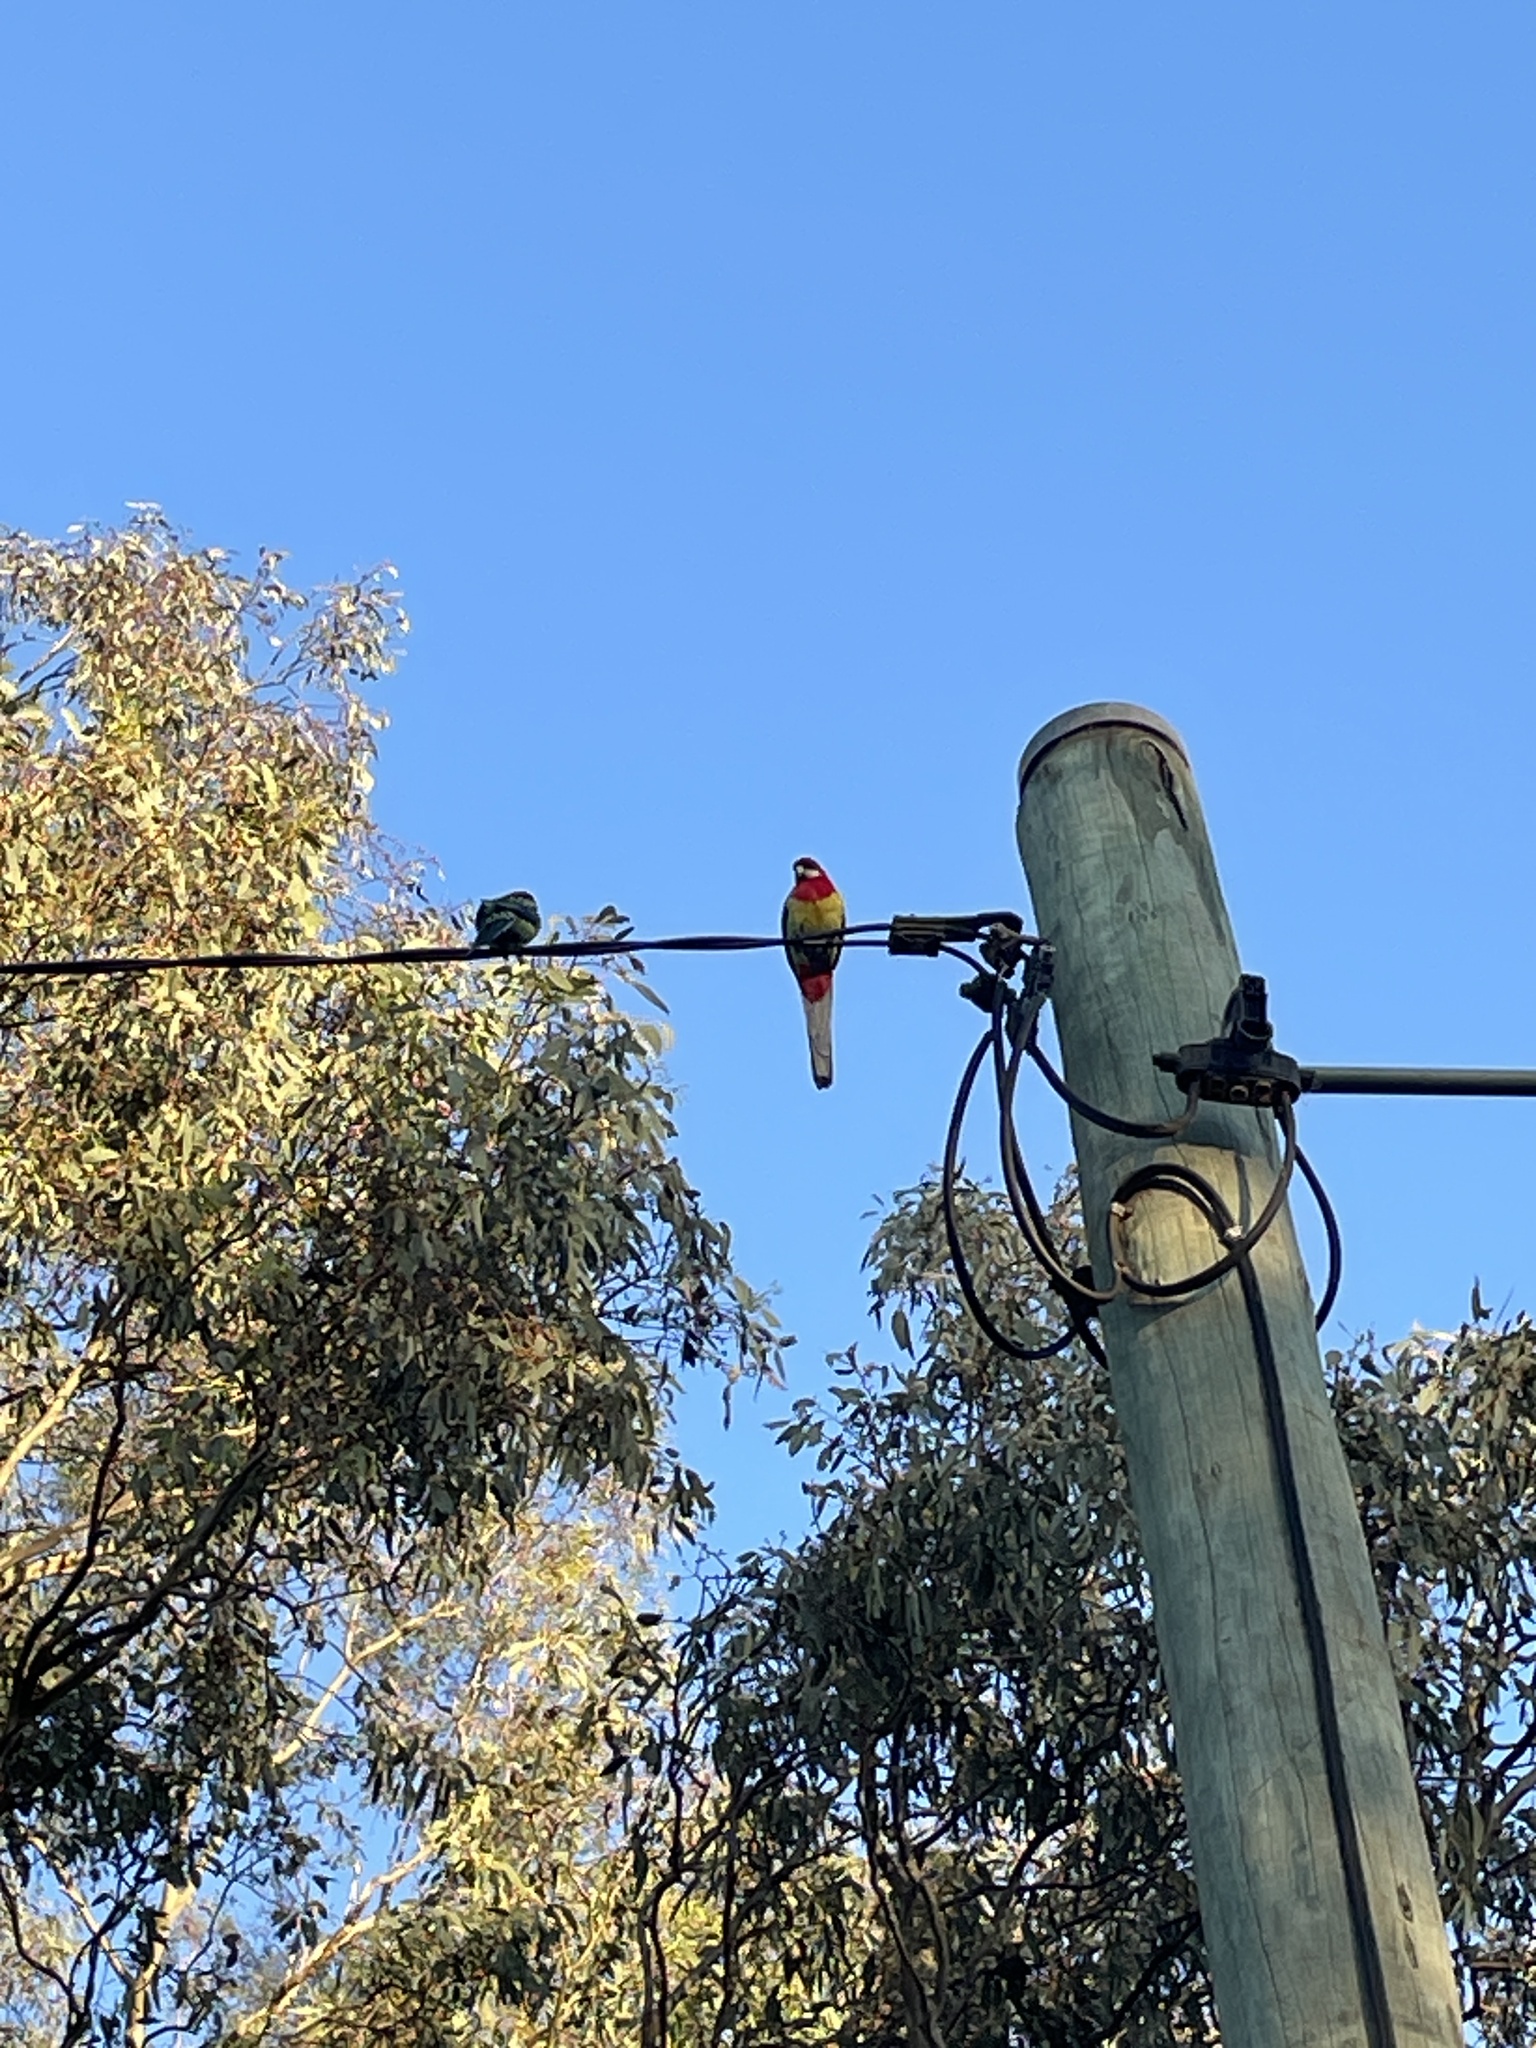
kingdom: Animalia
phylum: Chordata
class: Aves
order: Psittaciformes
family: Psittacidae
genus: Platycercus
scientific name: Platycercus eximius
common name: Eastern rosella
